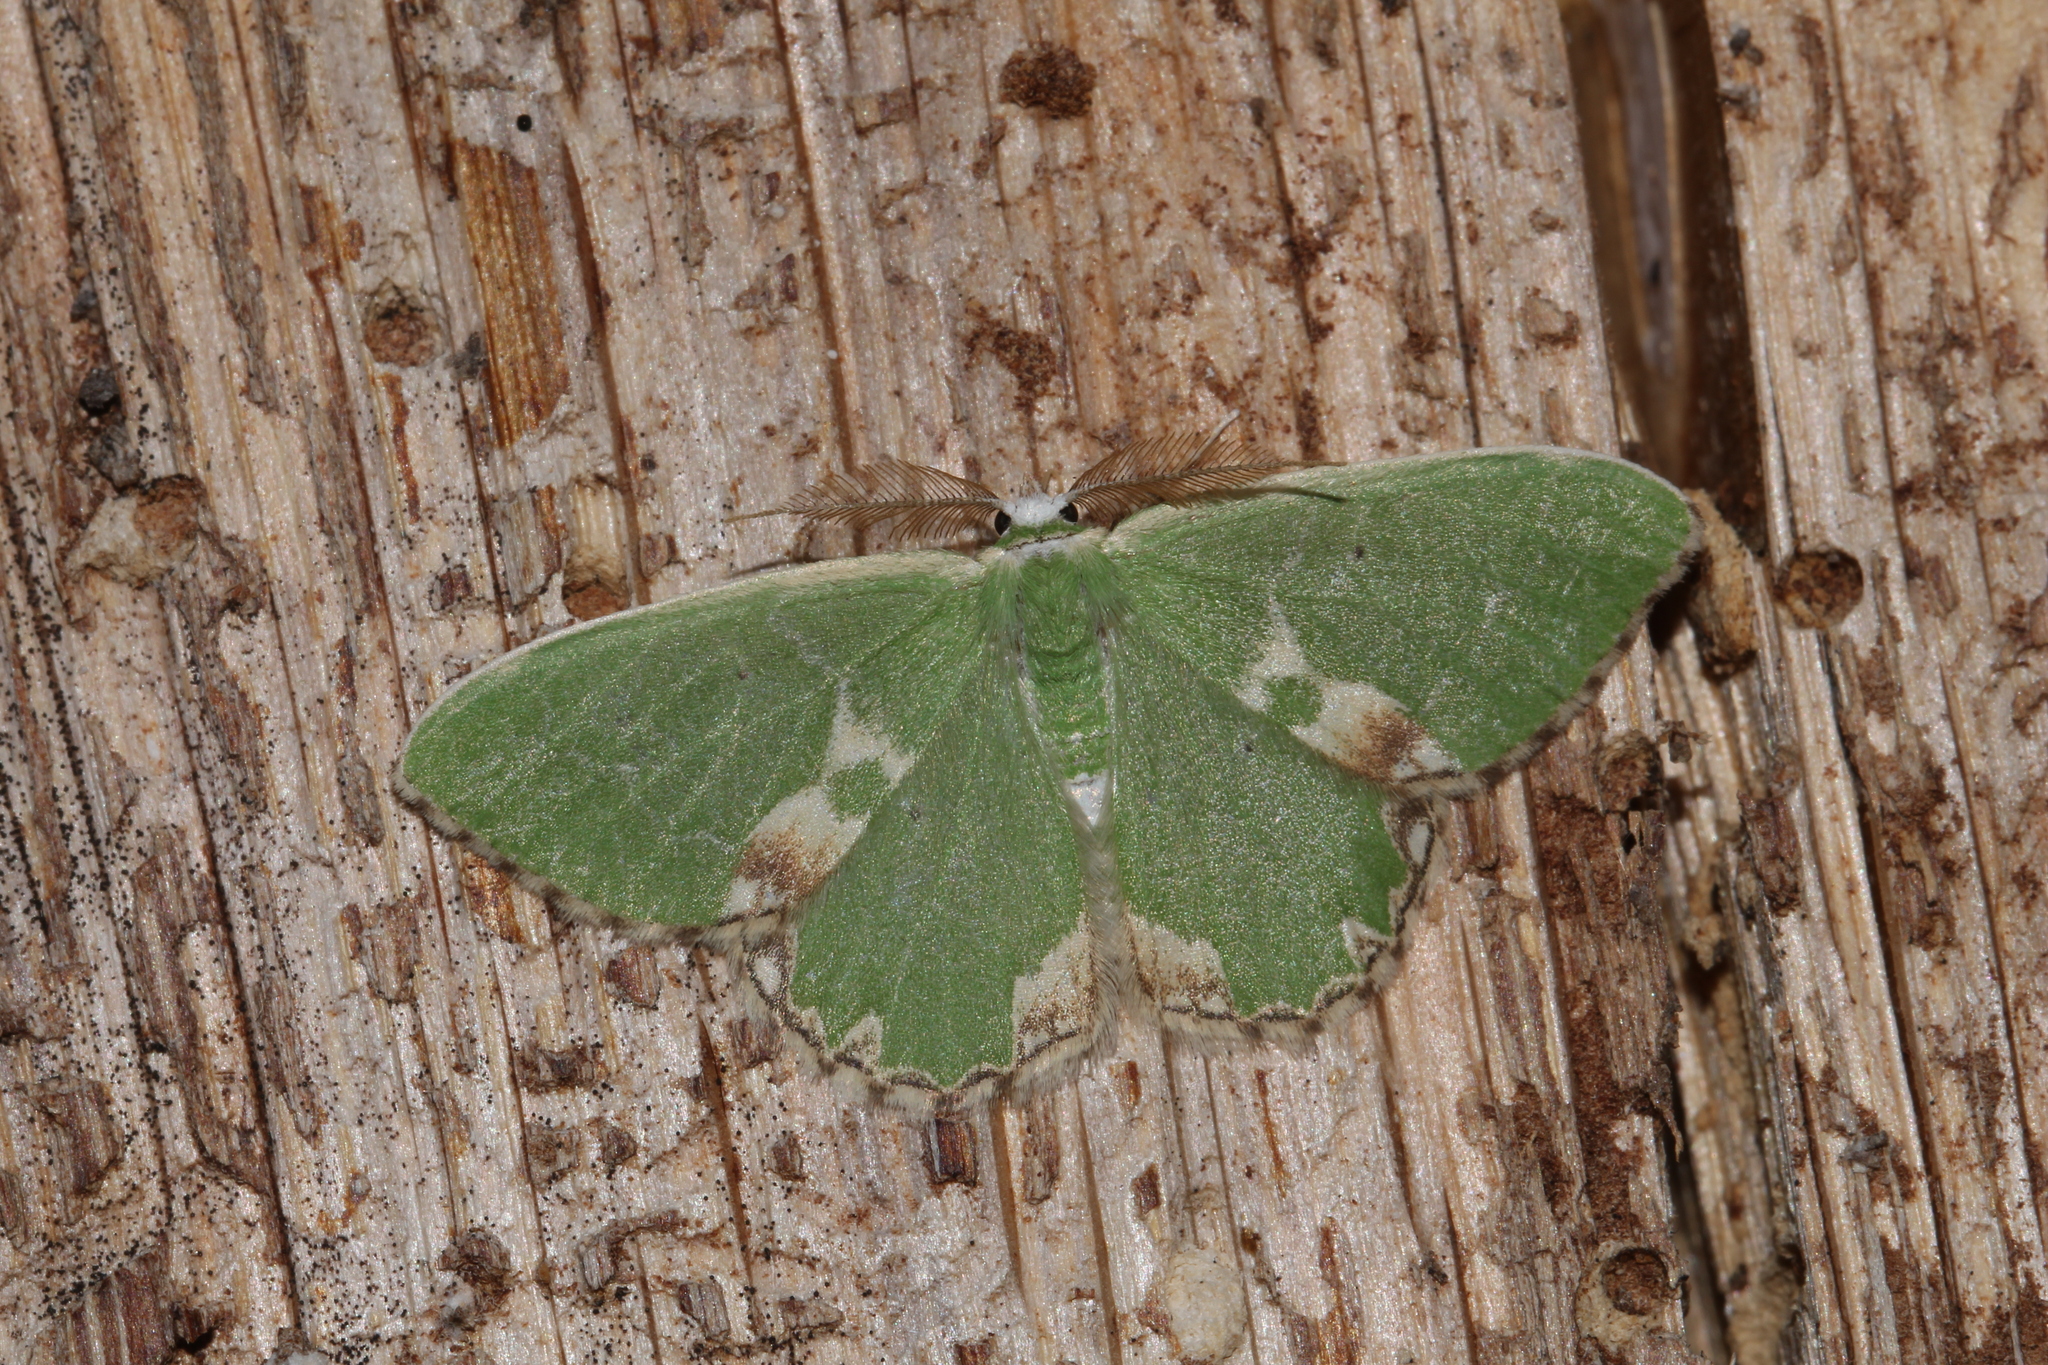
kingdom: Animalia
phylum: Arthropoda
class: Insecta
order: Lepidoptera
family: Geometridae
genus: Comibaena
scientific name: Comibaena bajularia
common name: Blotched emerald
